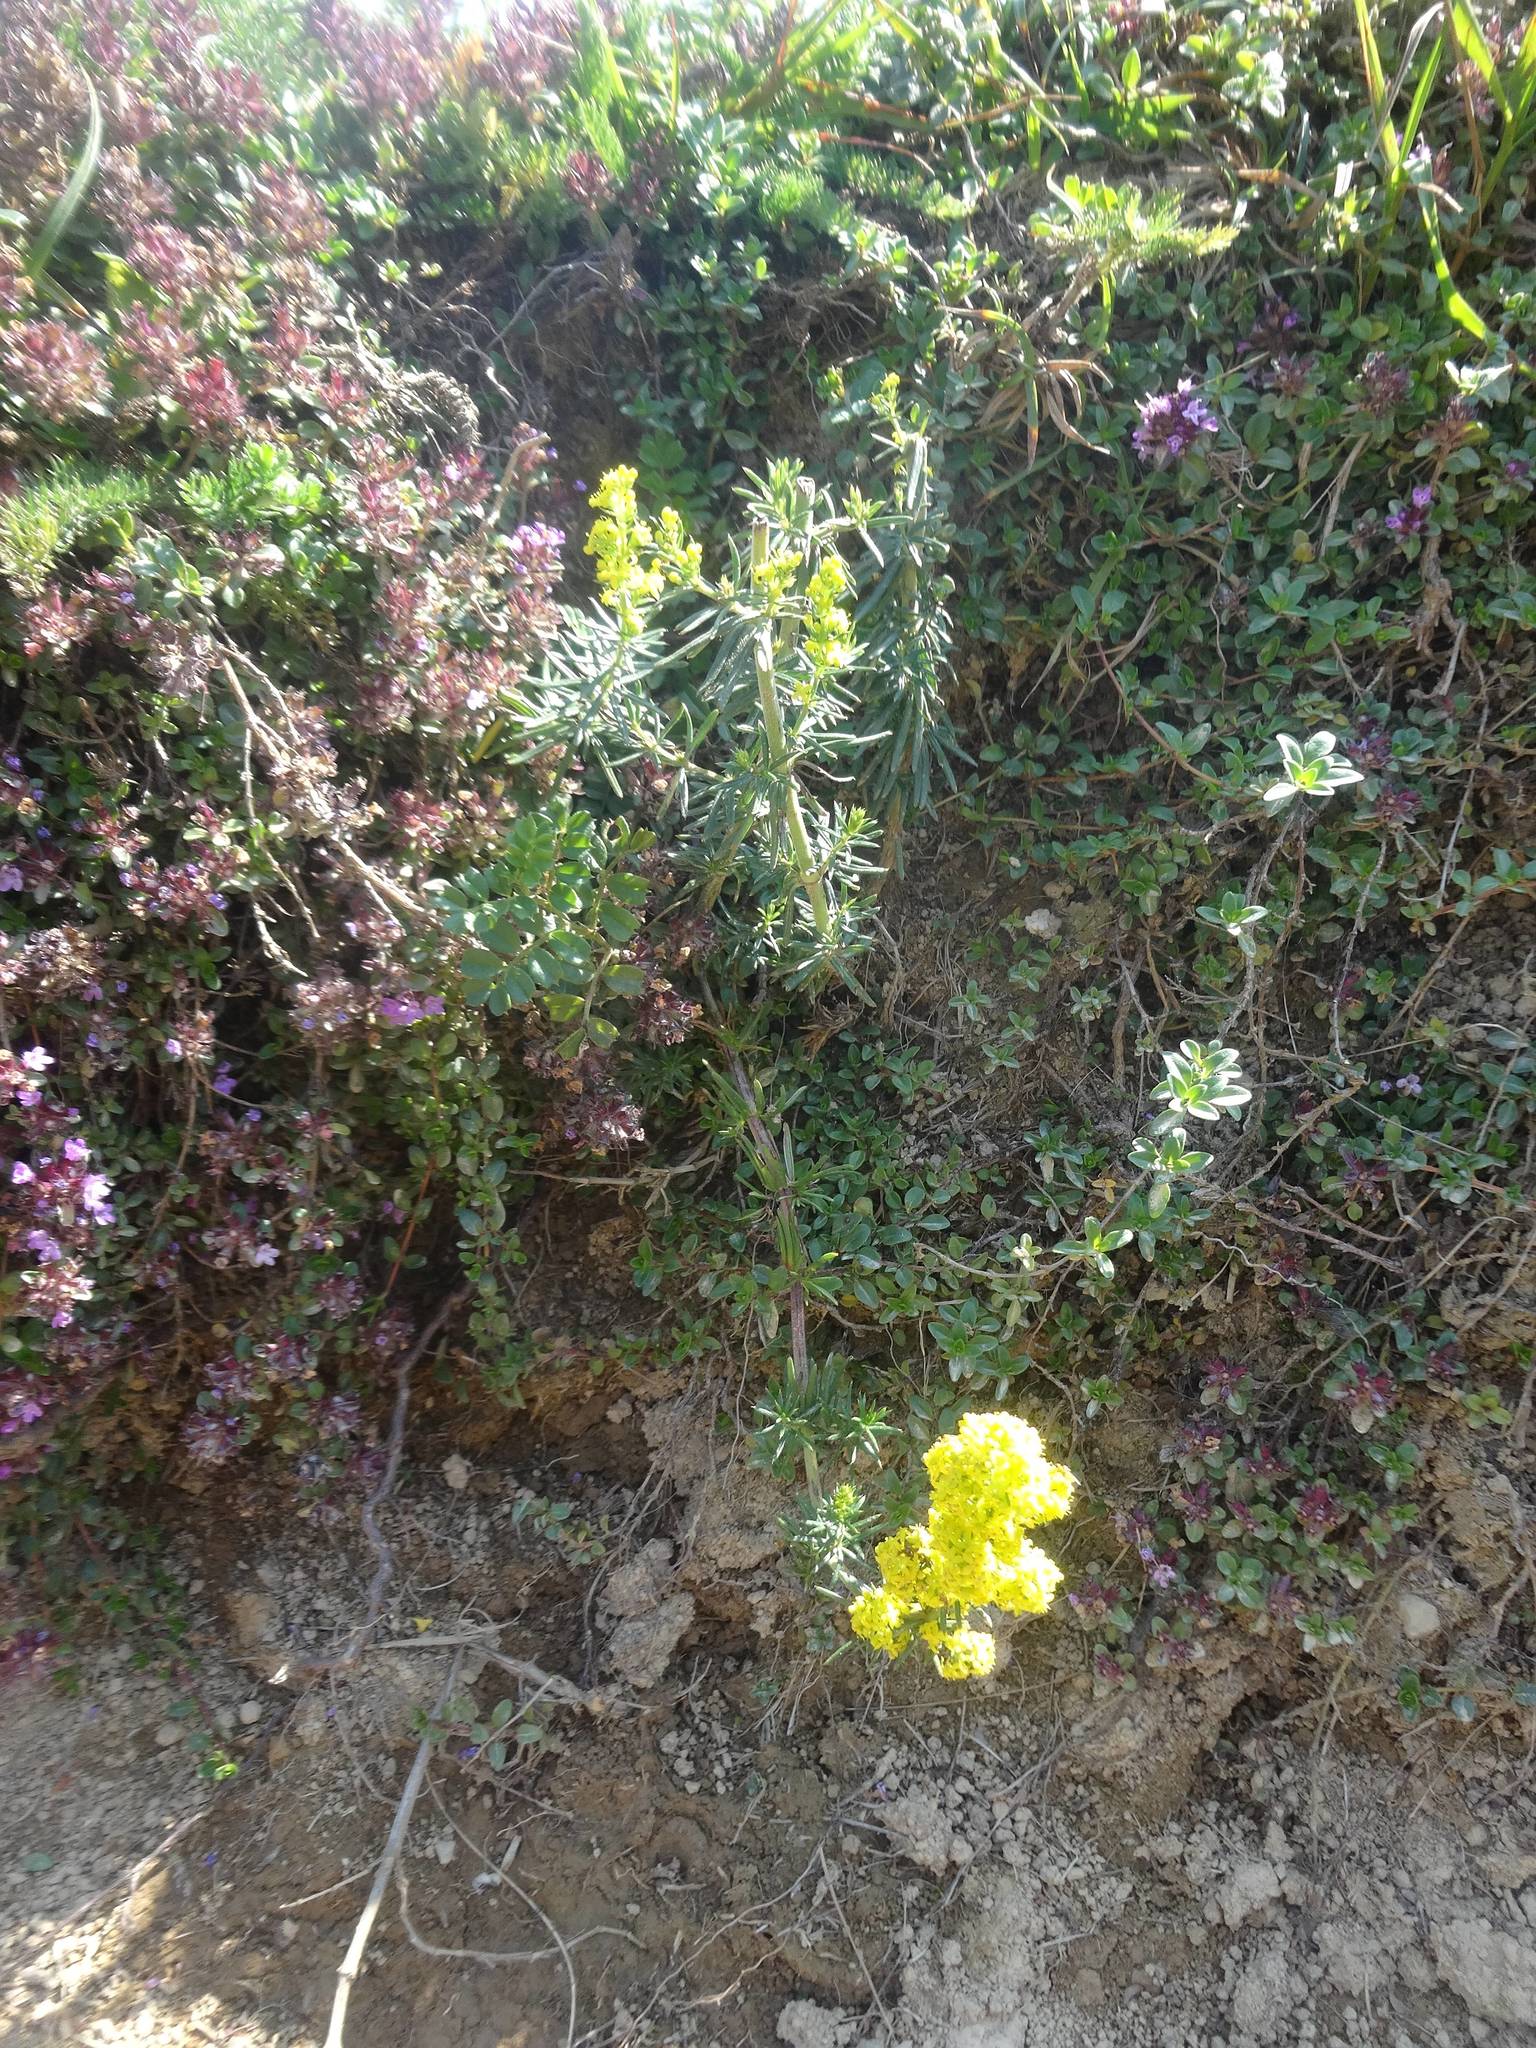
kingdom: Plantae
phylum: Tracheophyta
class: Magnoliopsida
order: Gentianales
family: Rubiaceae
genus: Galium
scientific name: Galium verum
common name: Lady's bedstraw
